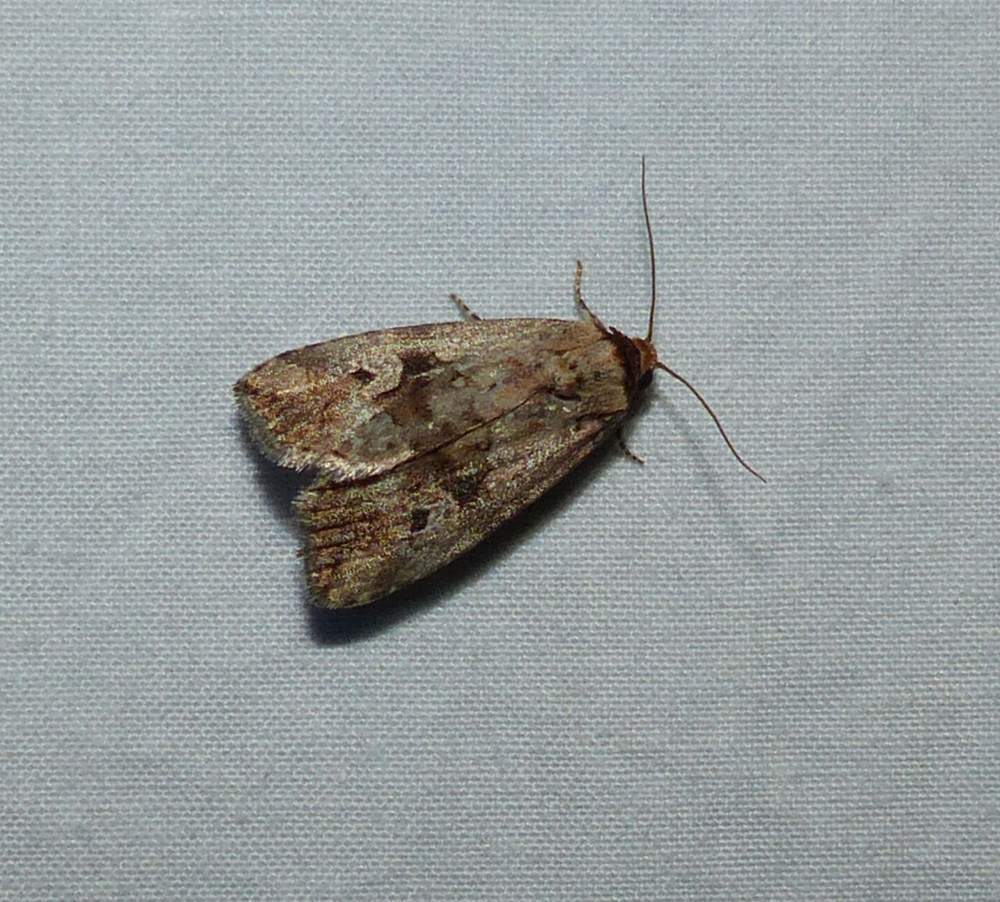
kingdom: Animalia
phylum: Arthropoda
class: Insecta
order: Lepidoptera
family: Noctuidae
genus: Elaphria
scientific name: Elaphria alapallida
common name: Pale-winged midget
